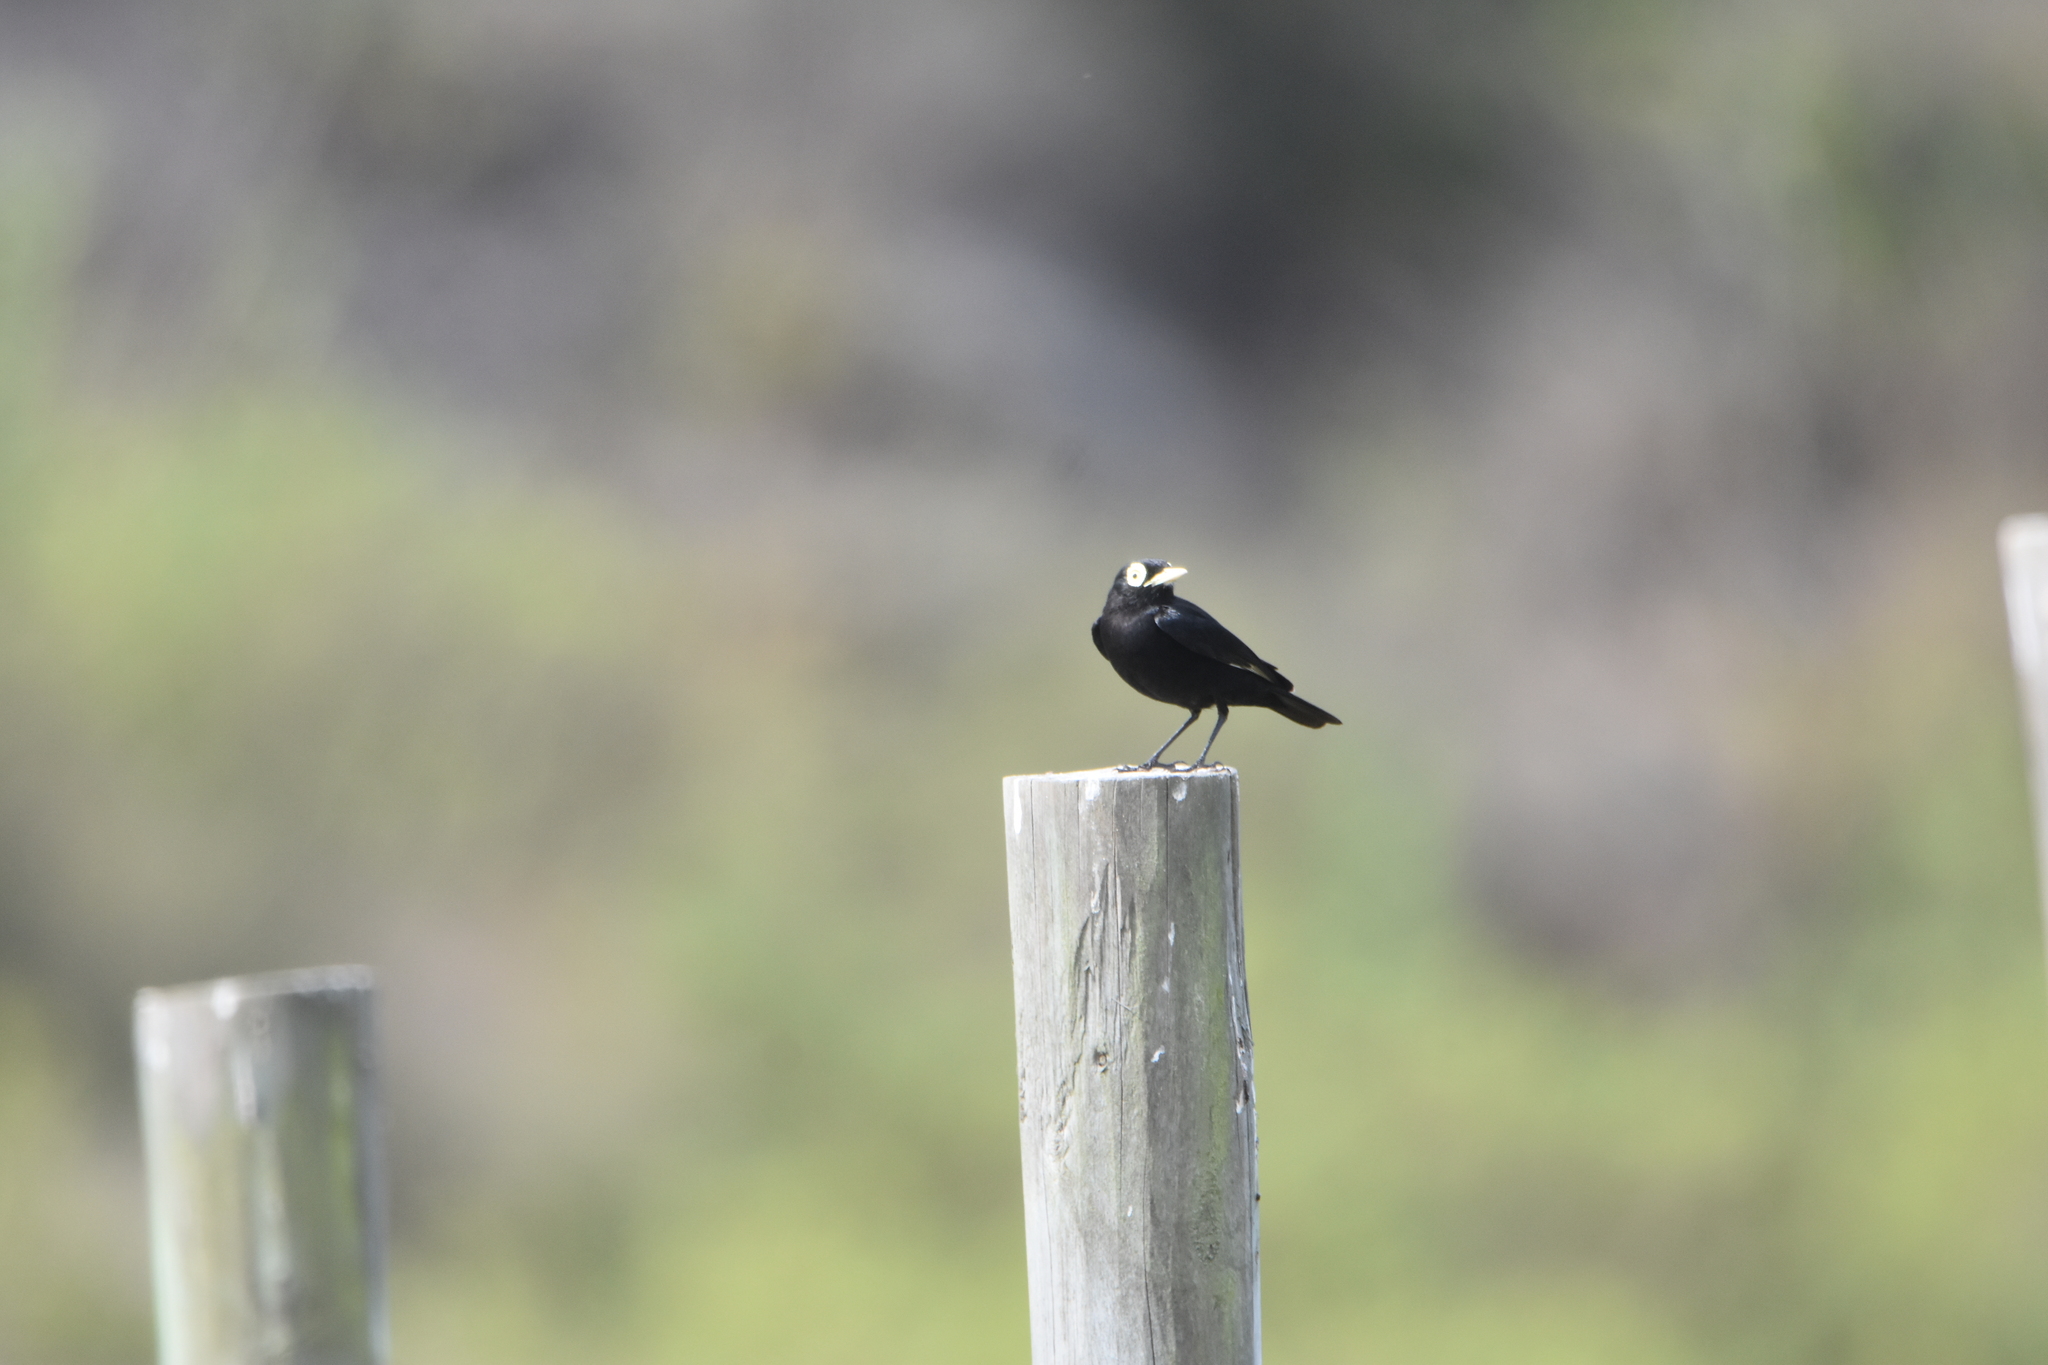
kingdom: Animalia
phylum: Chordata
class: Aves
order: Passeriformes
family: Tyrannidae
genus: Hymenops
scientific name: Hymenops perspicillatus
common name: Spectacled tyrant
